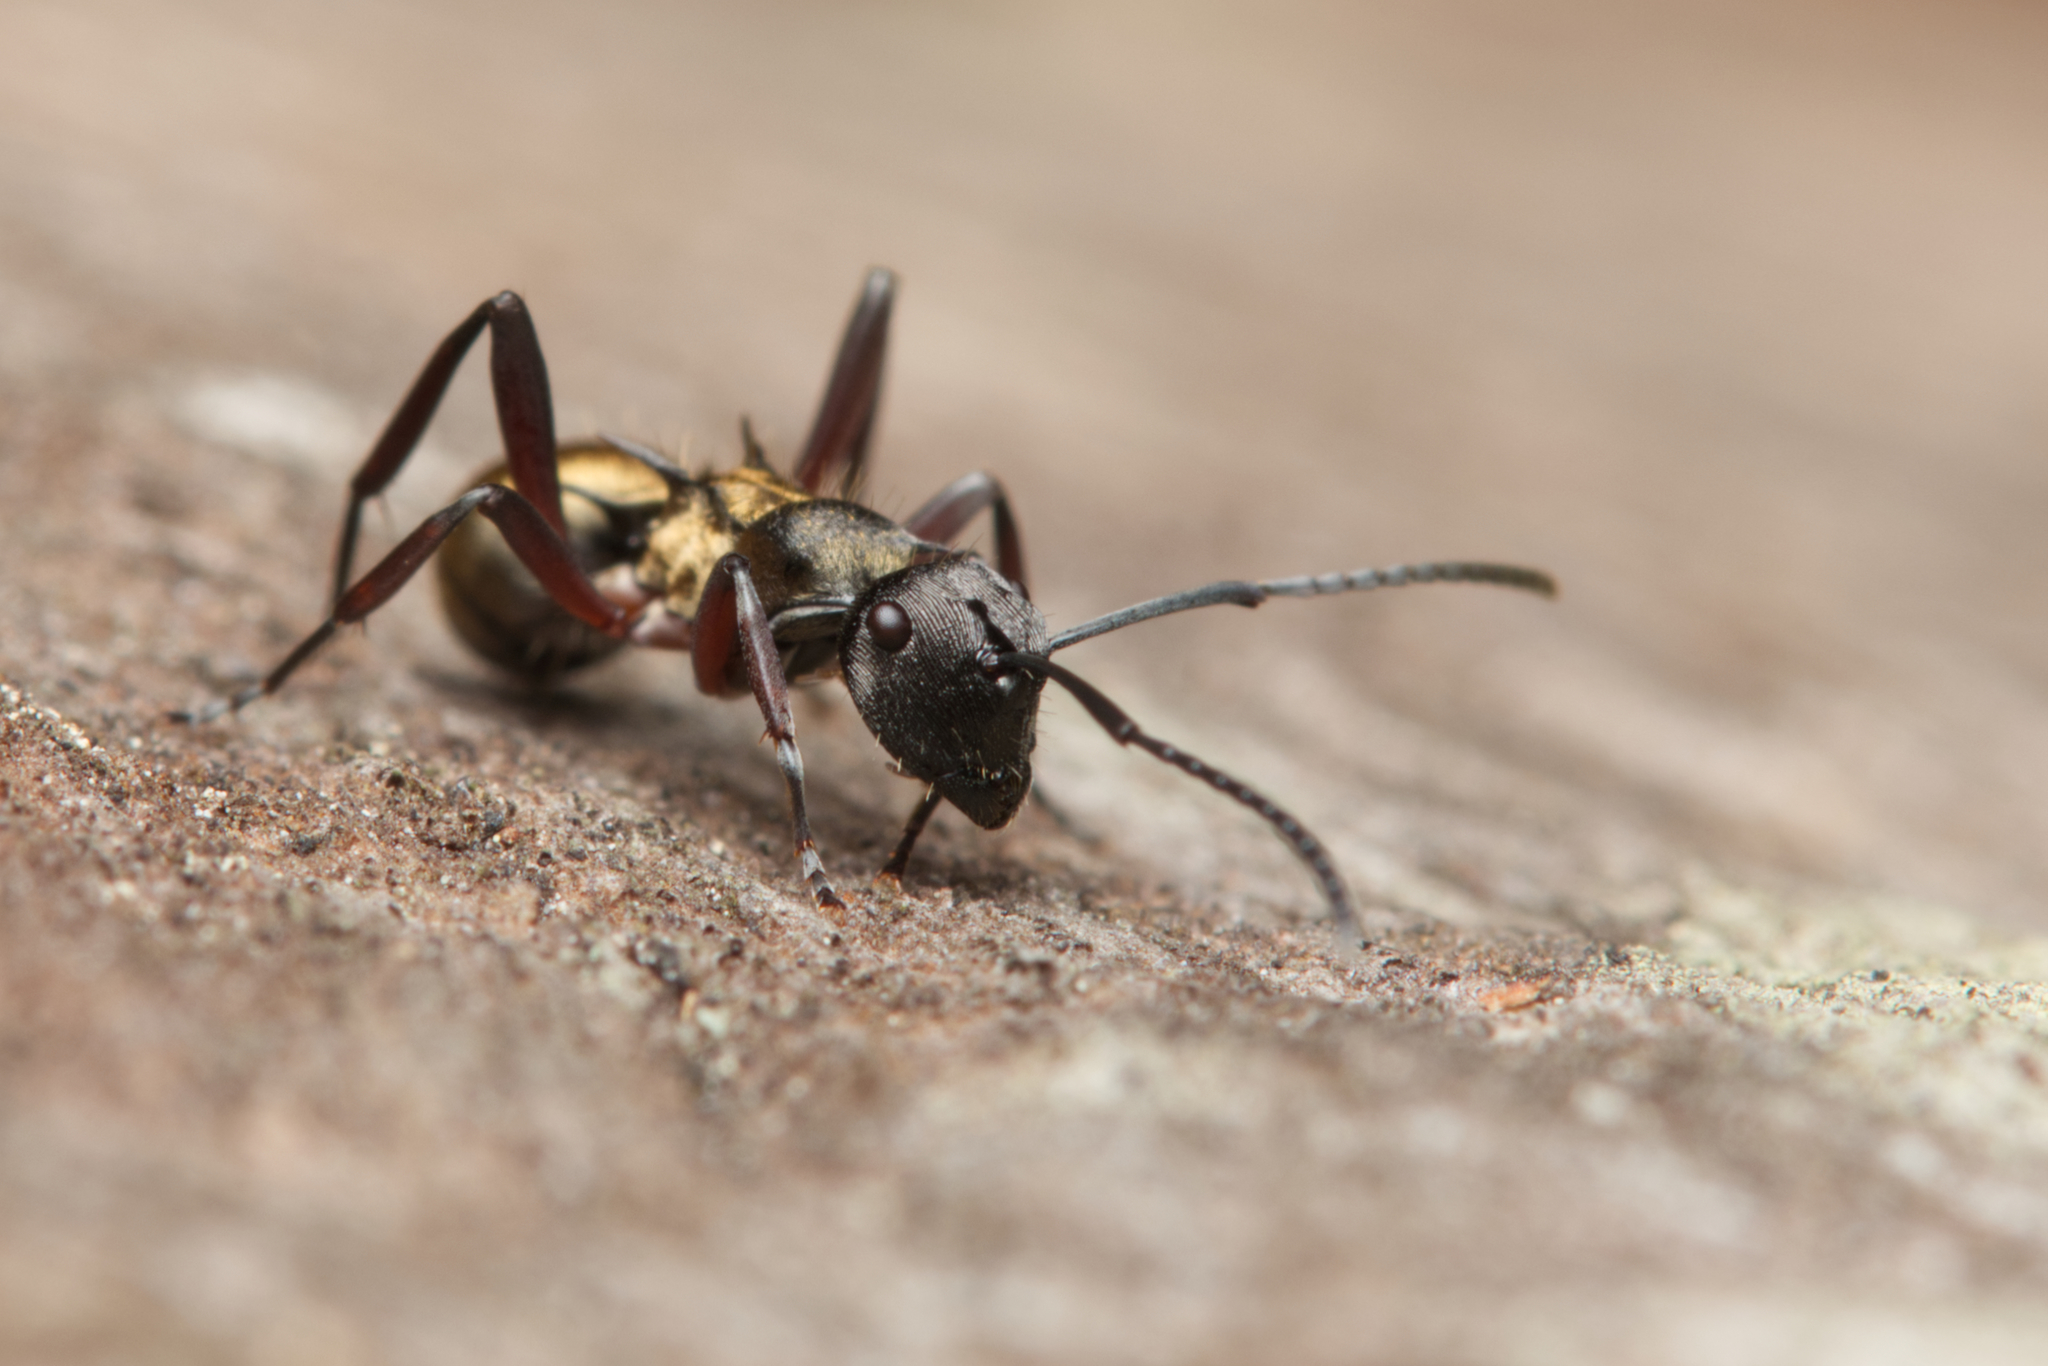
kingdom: Animalia
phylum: Arthropoda
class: Insecta
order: Hymenoptera
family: Formicidae
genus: Polyrhachis
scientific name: Polyrhachis rufifemur
